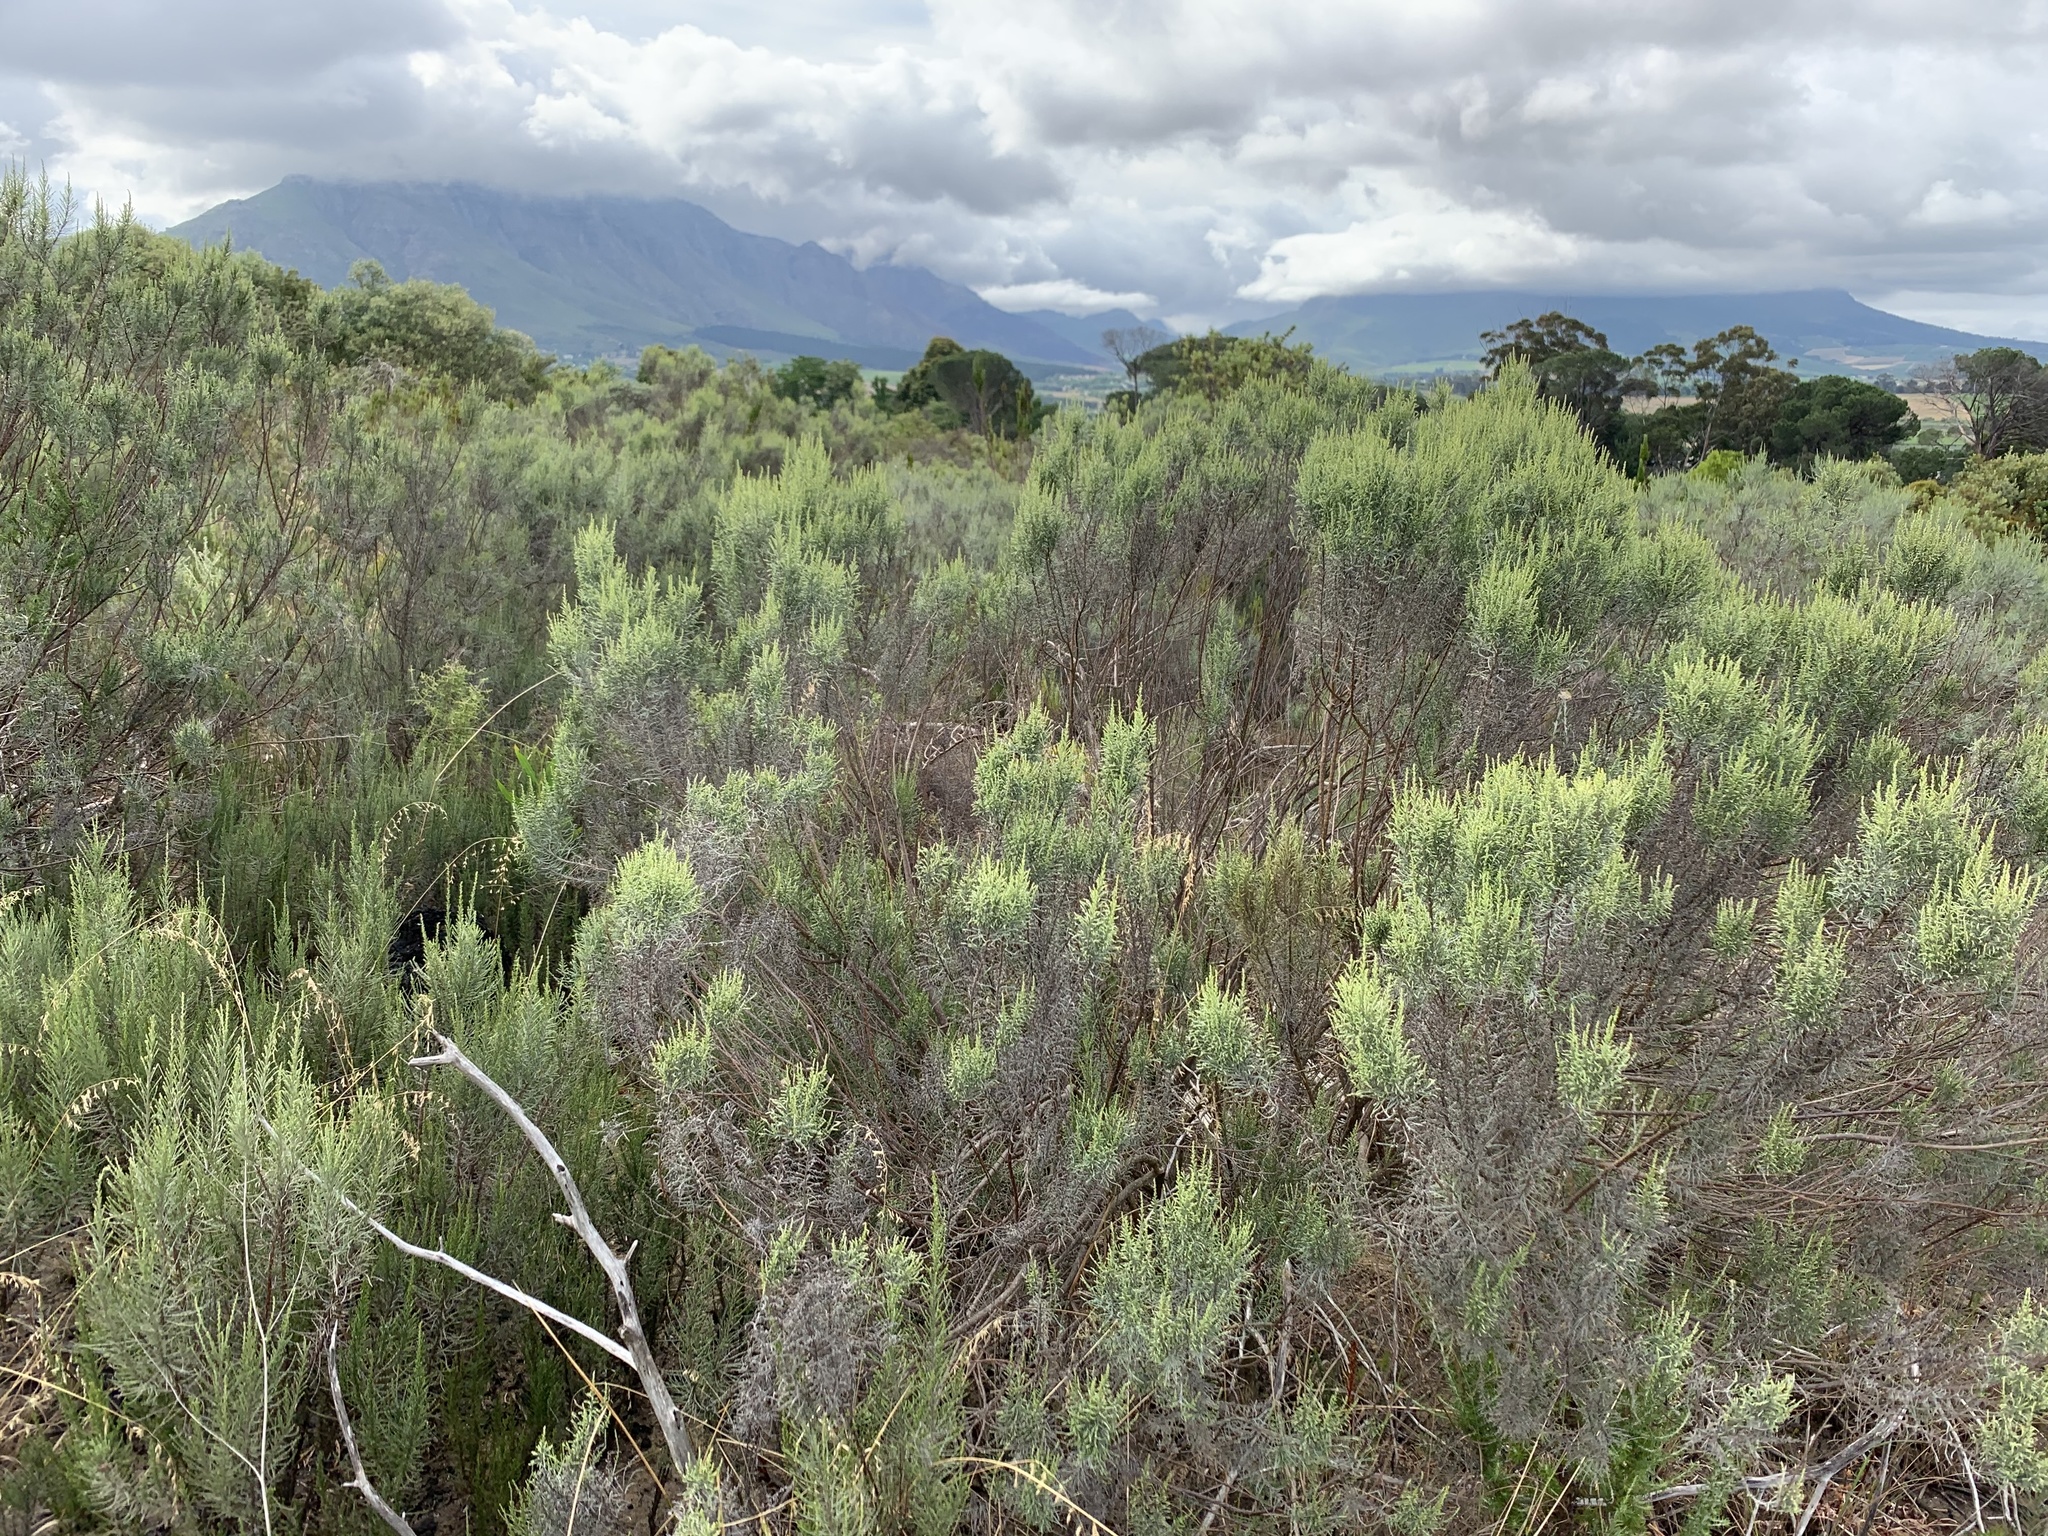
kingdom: Plantae
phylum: Tracheophyta
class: Magnoliopsida
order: Asterales
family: Asteraceae
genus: Dicerothamnus
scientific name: Dicerothamnus rhinocerotis
